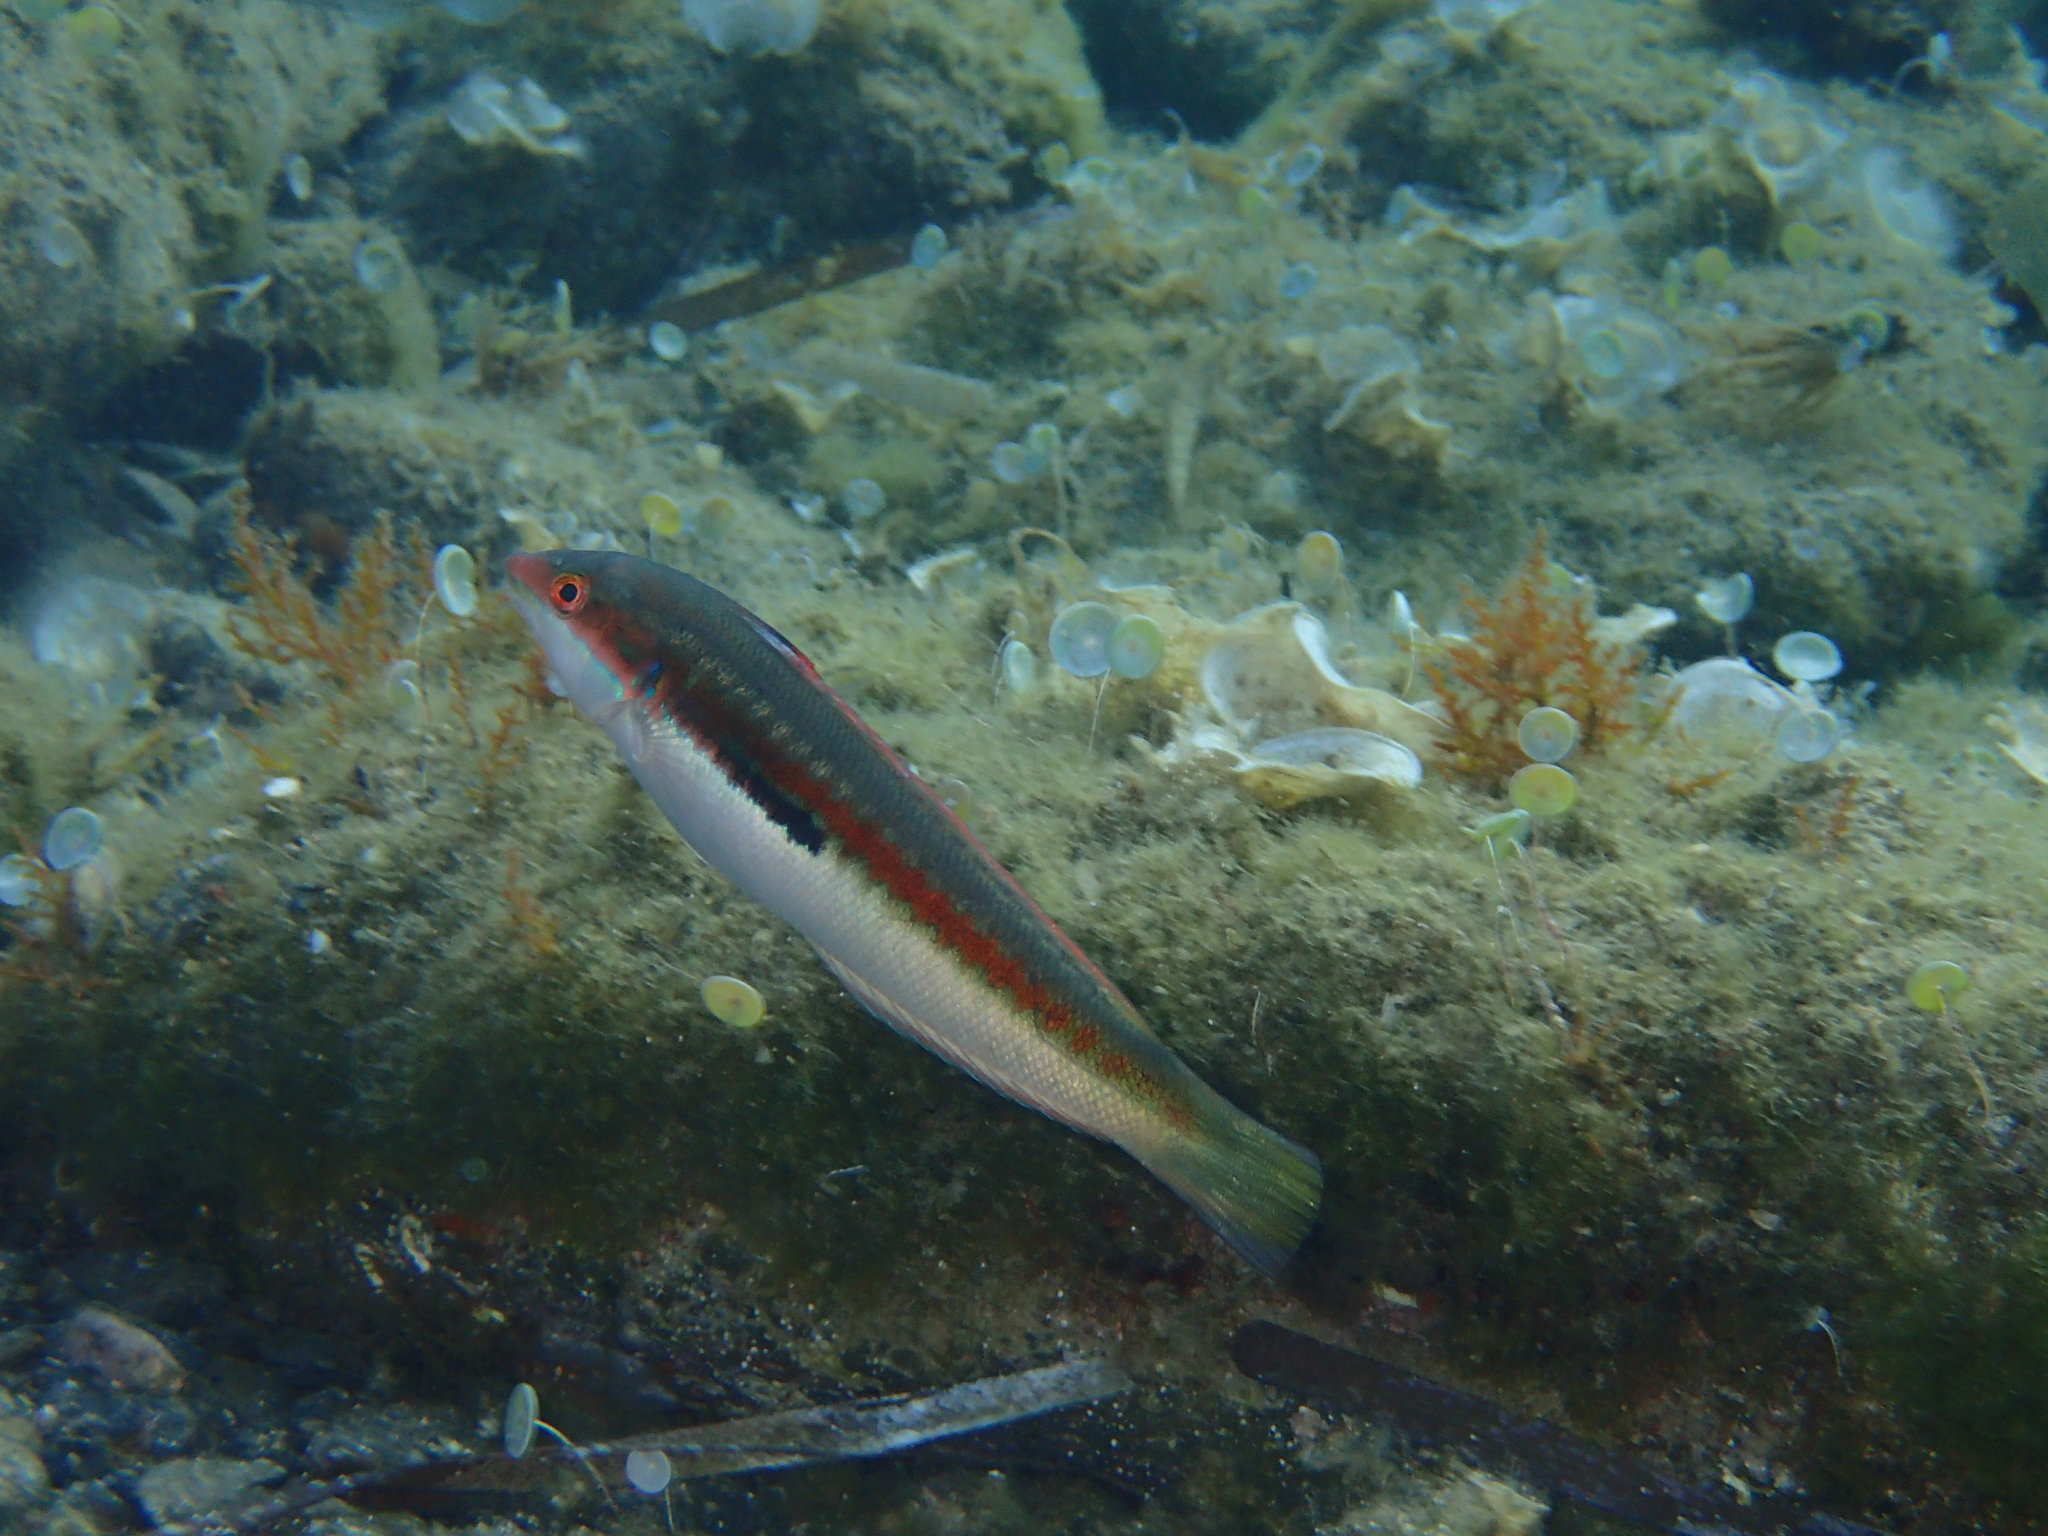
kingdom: Animalia
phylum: Chordata
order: Perciformes
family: Labridae
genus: Coris
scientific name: Coris julis
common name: Rainbow wrasse
